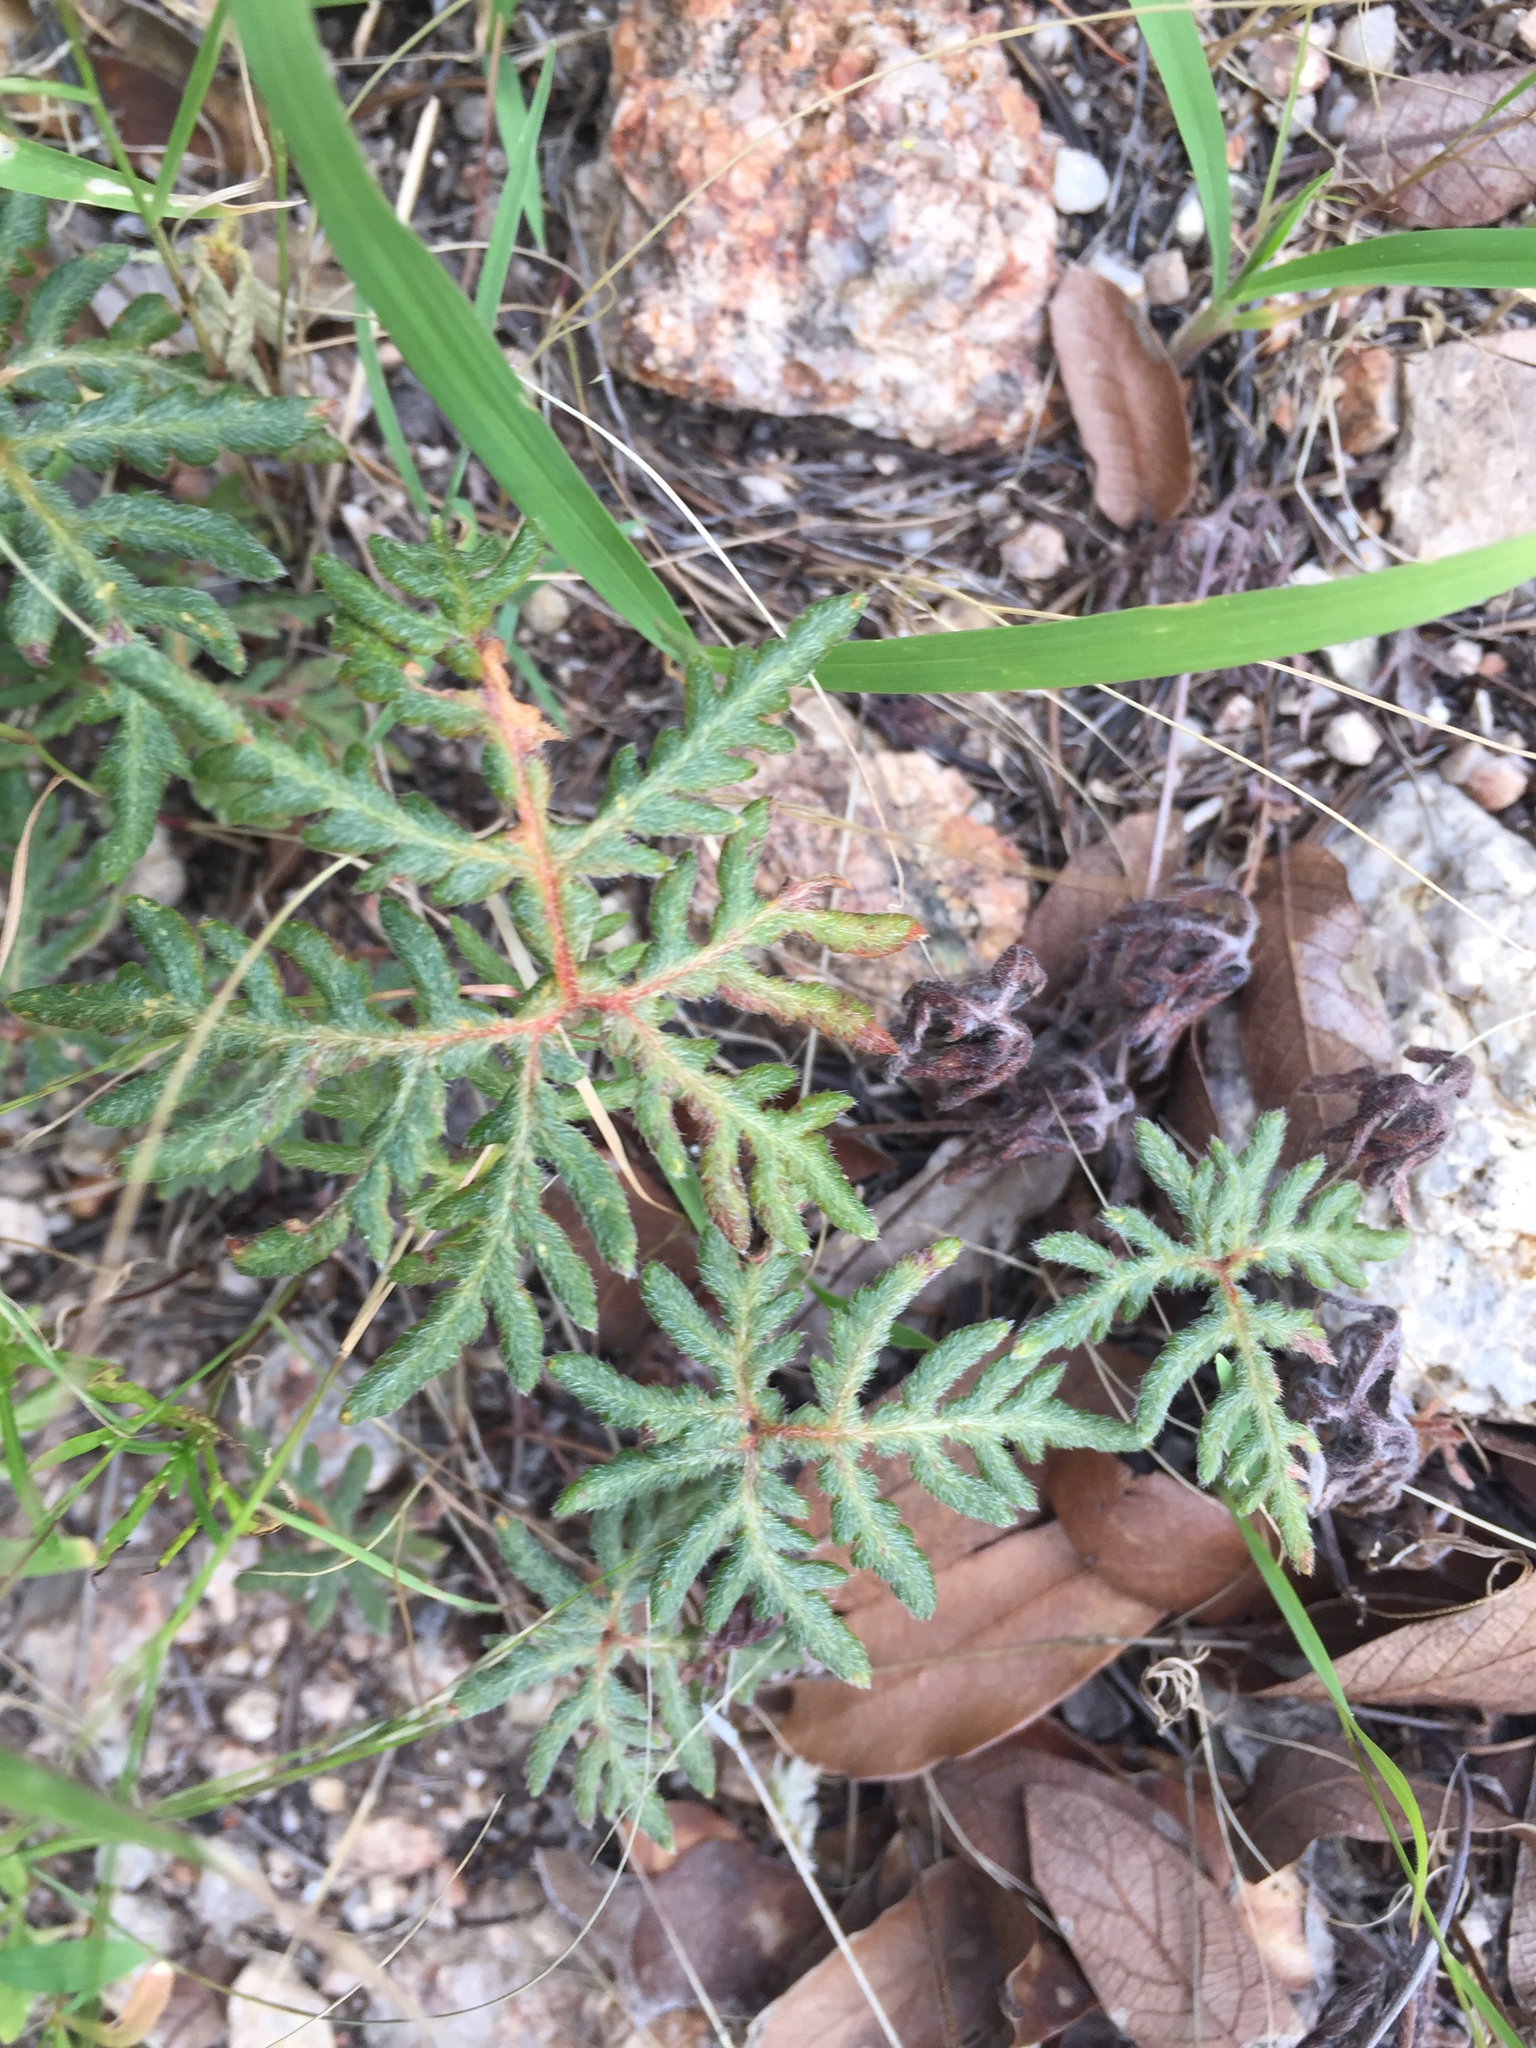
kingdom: Plantae
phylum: Tracheophyta
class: Polypodiopsida
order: Polypodiales
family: Pteridaceae
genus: Bommeria
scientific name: Bommeria hispida
